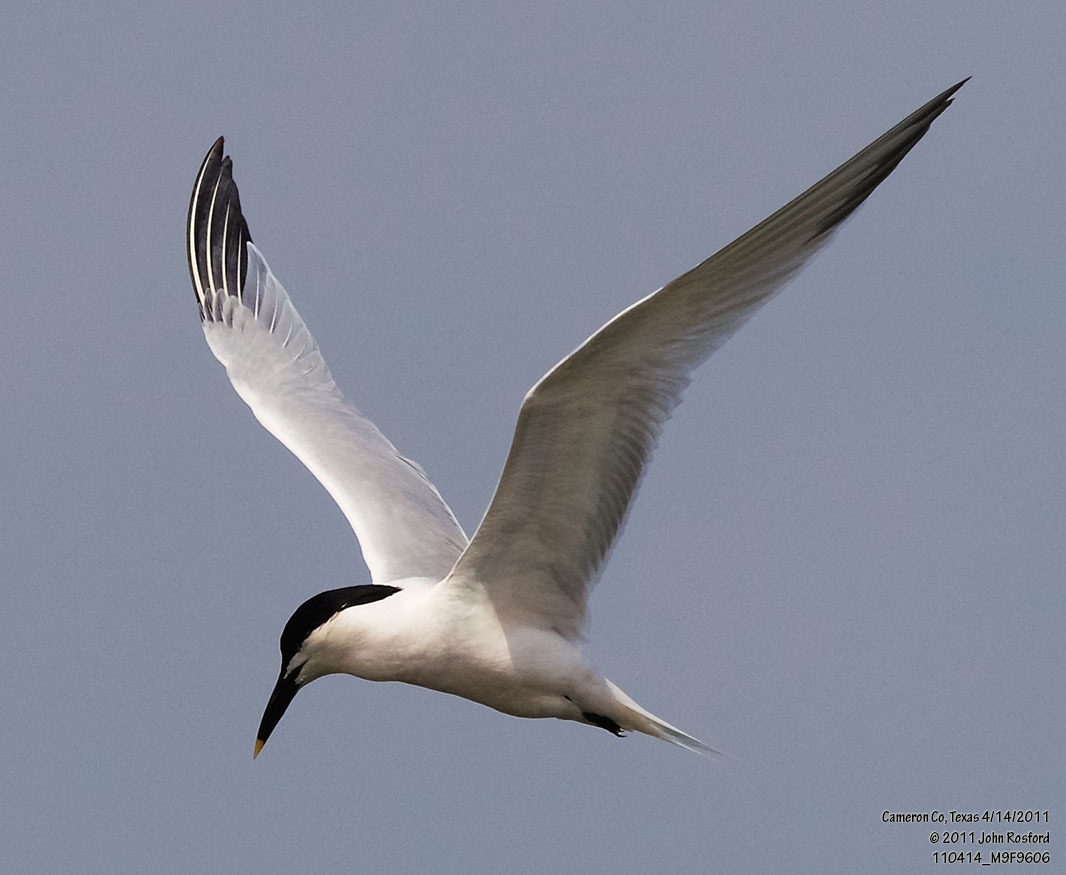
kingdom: Animalia
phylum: Chordata
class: Aves
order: Charadriiformes
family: Laridae
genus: Thalasseus
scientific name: Thalasseus sandvicensis
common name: Sandwich tern
